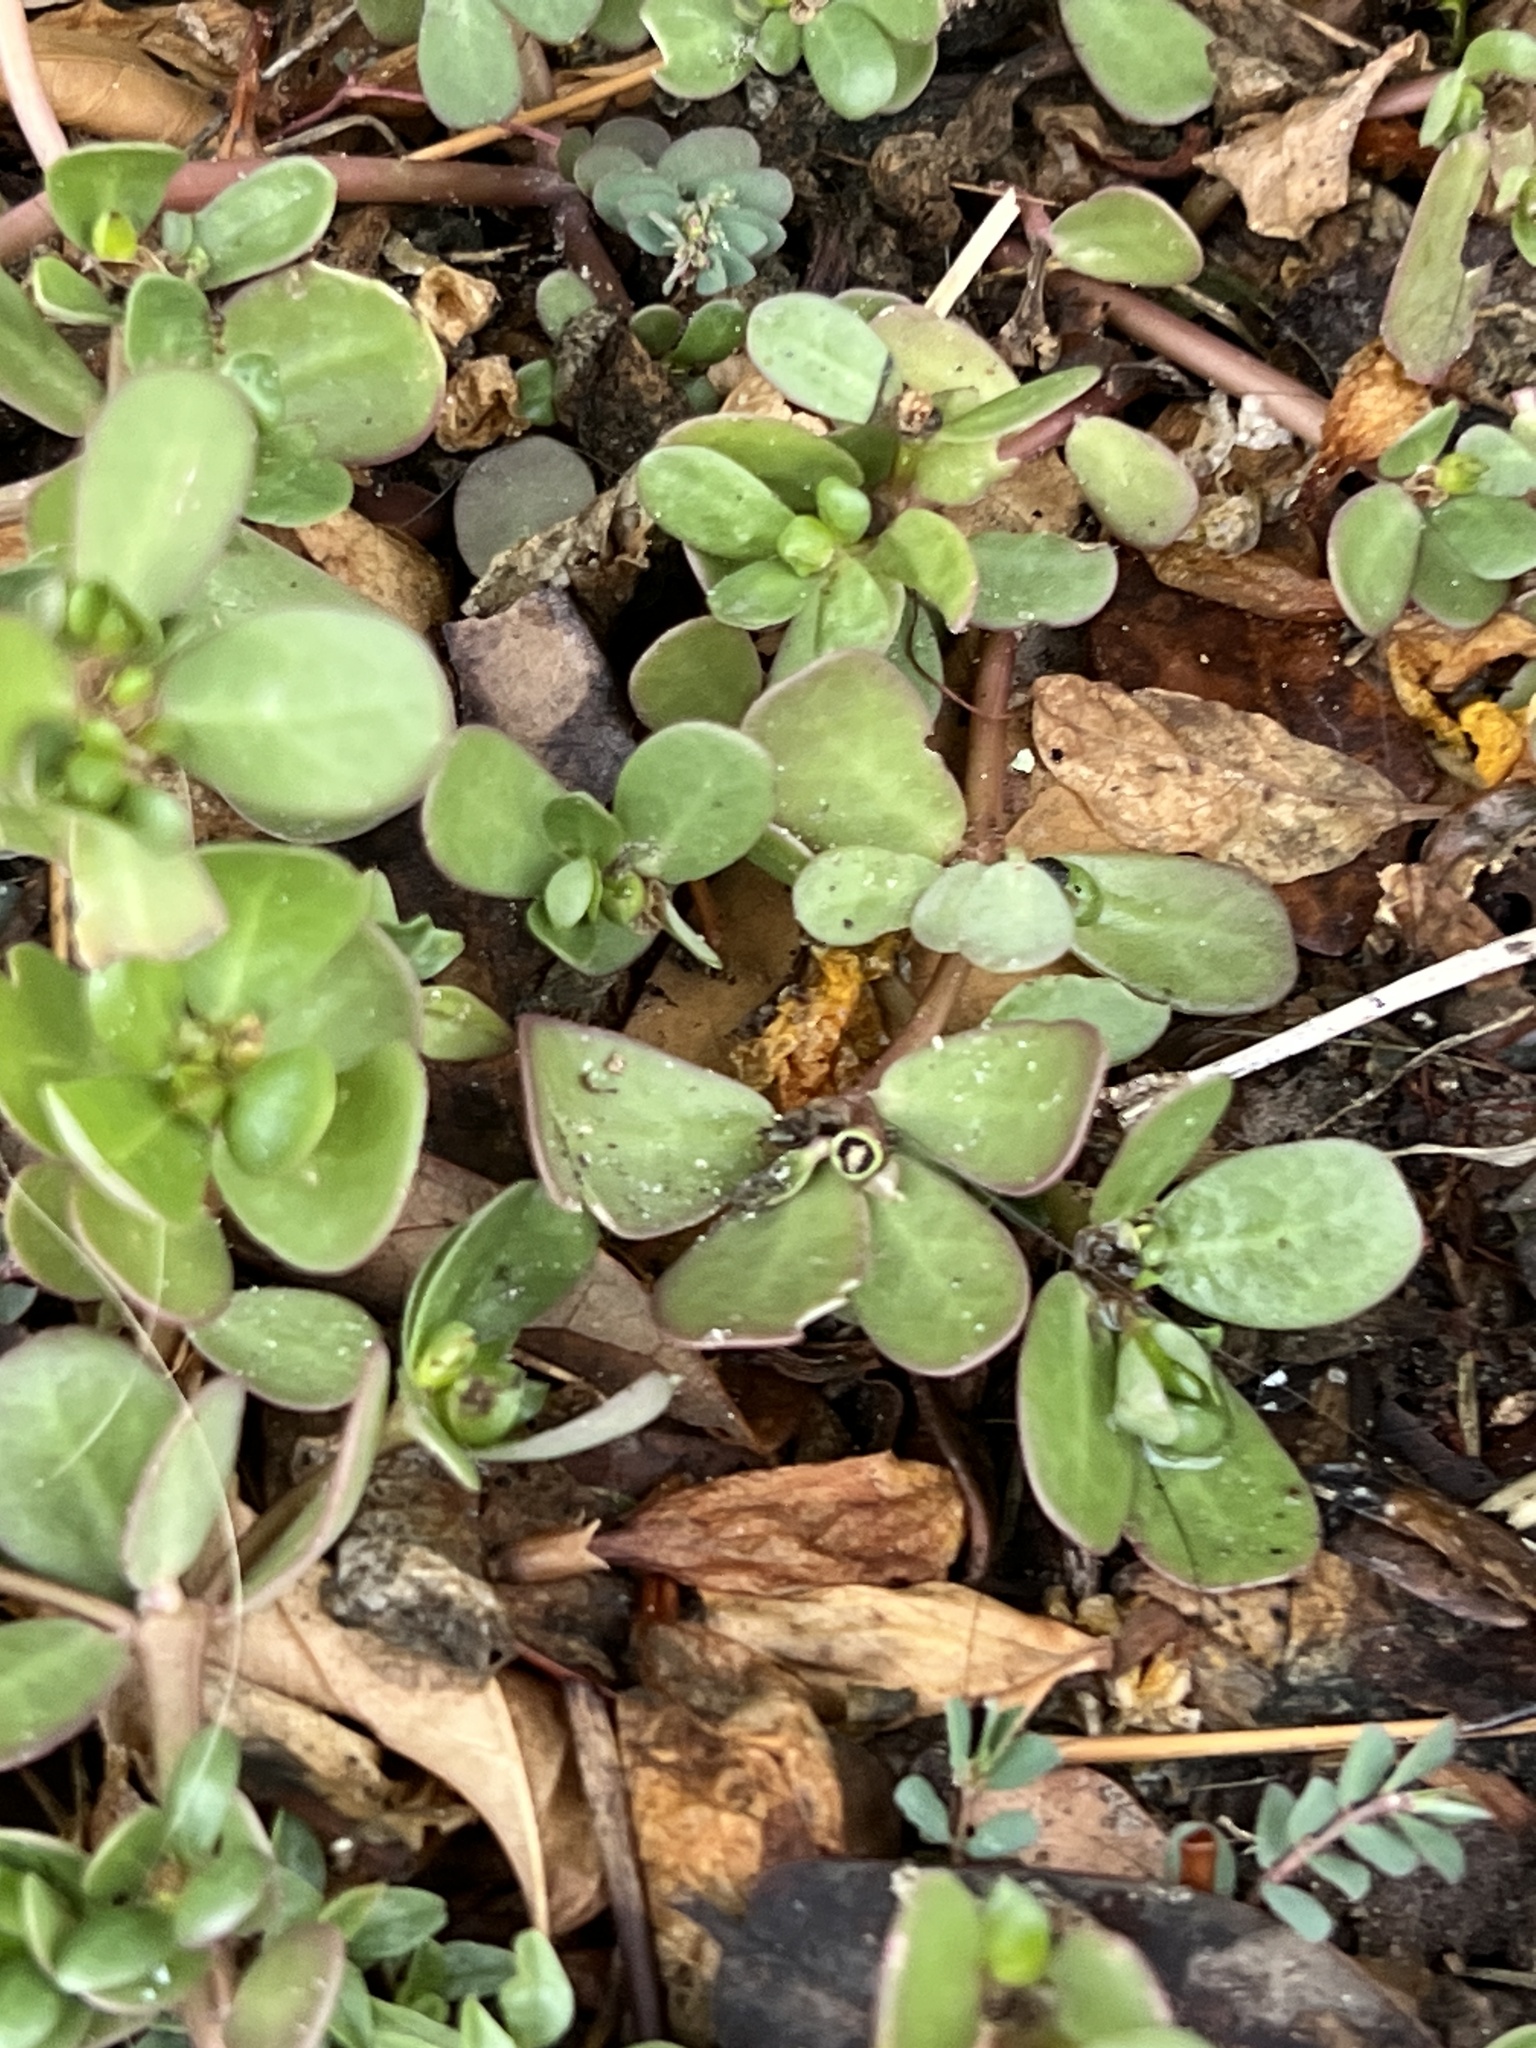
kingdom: Plantae
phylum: Tracheophyta
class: Magnoliopsida
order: Caryophyllales
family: Portulacaceae
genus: Portulaca
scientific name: Portulaca oleracea
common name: Common purslane
